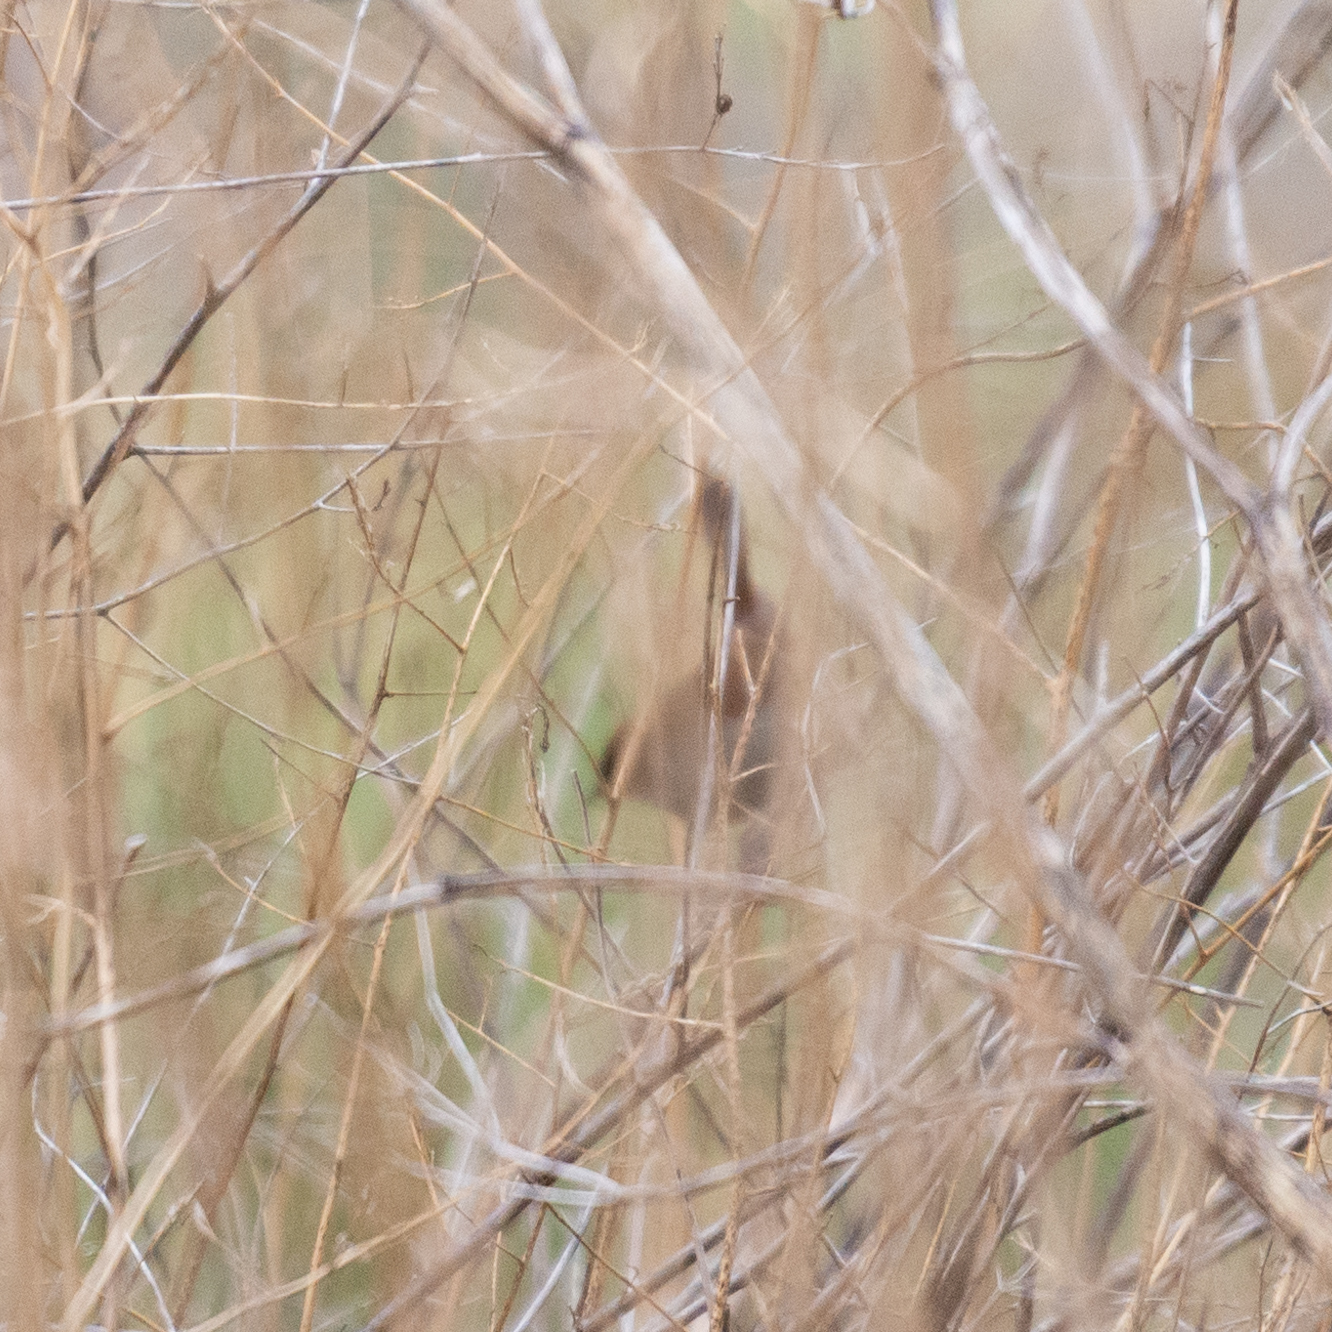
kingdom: Animalia
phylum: Chordata
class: Aves
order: Passeriformes
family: Cettiidae
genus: Cettia
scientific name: Cettia cetti
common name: Cetti's warbler
